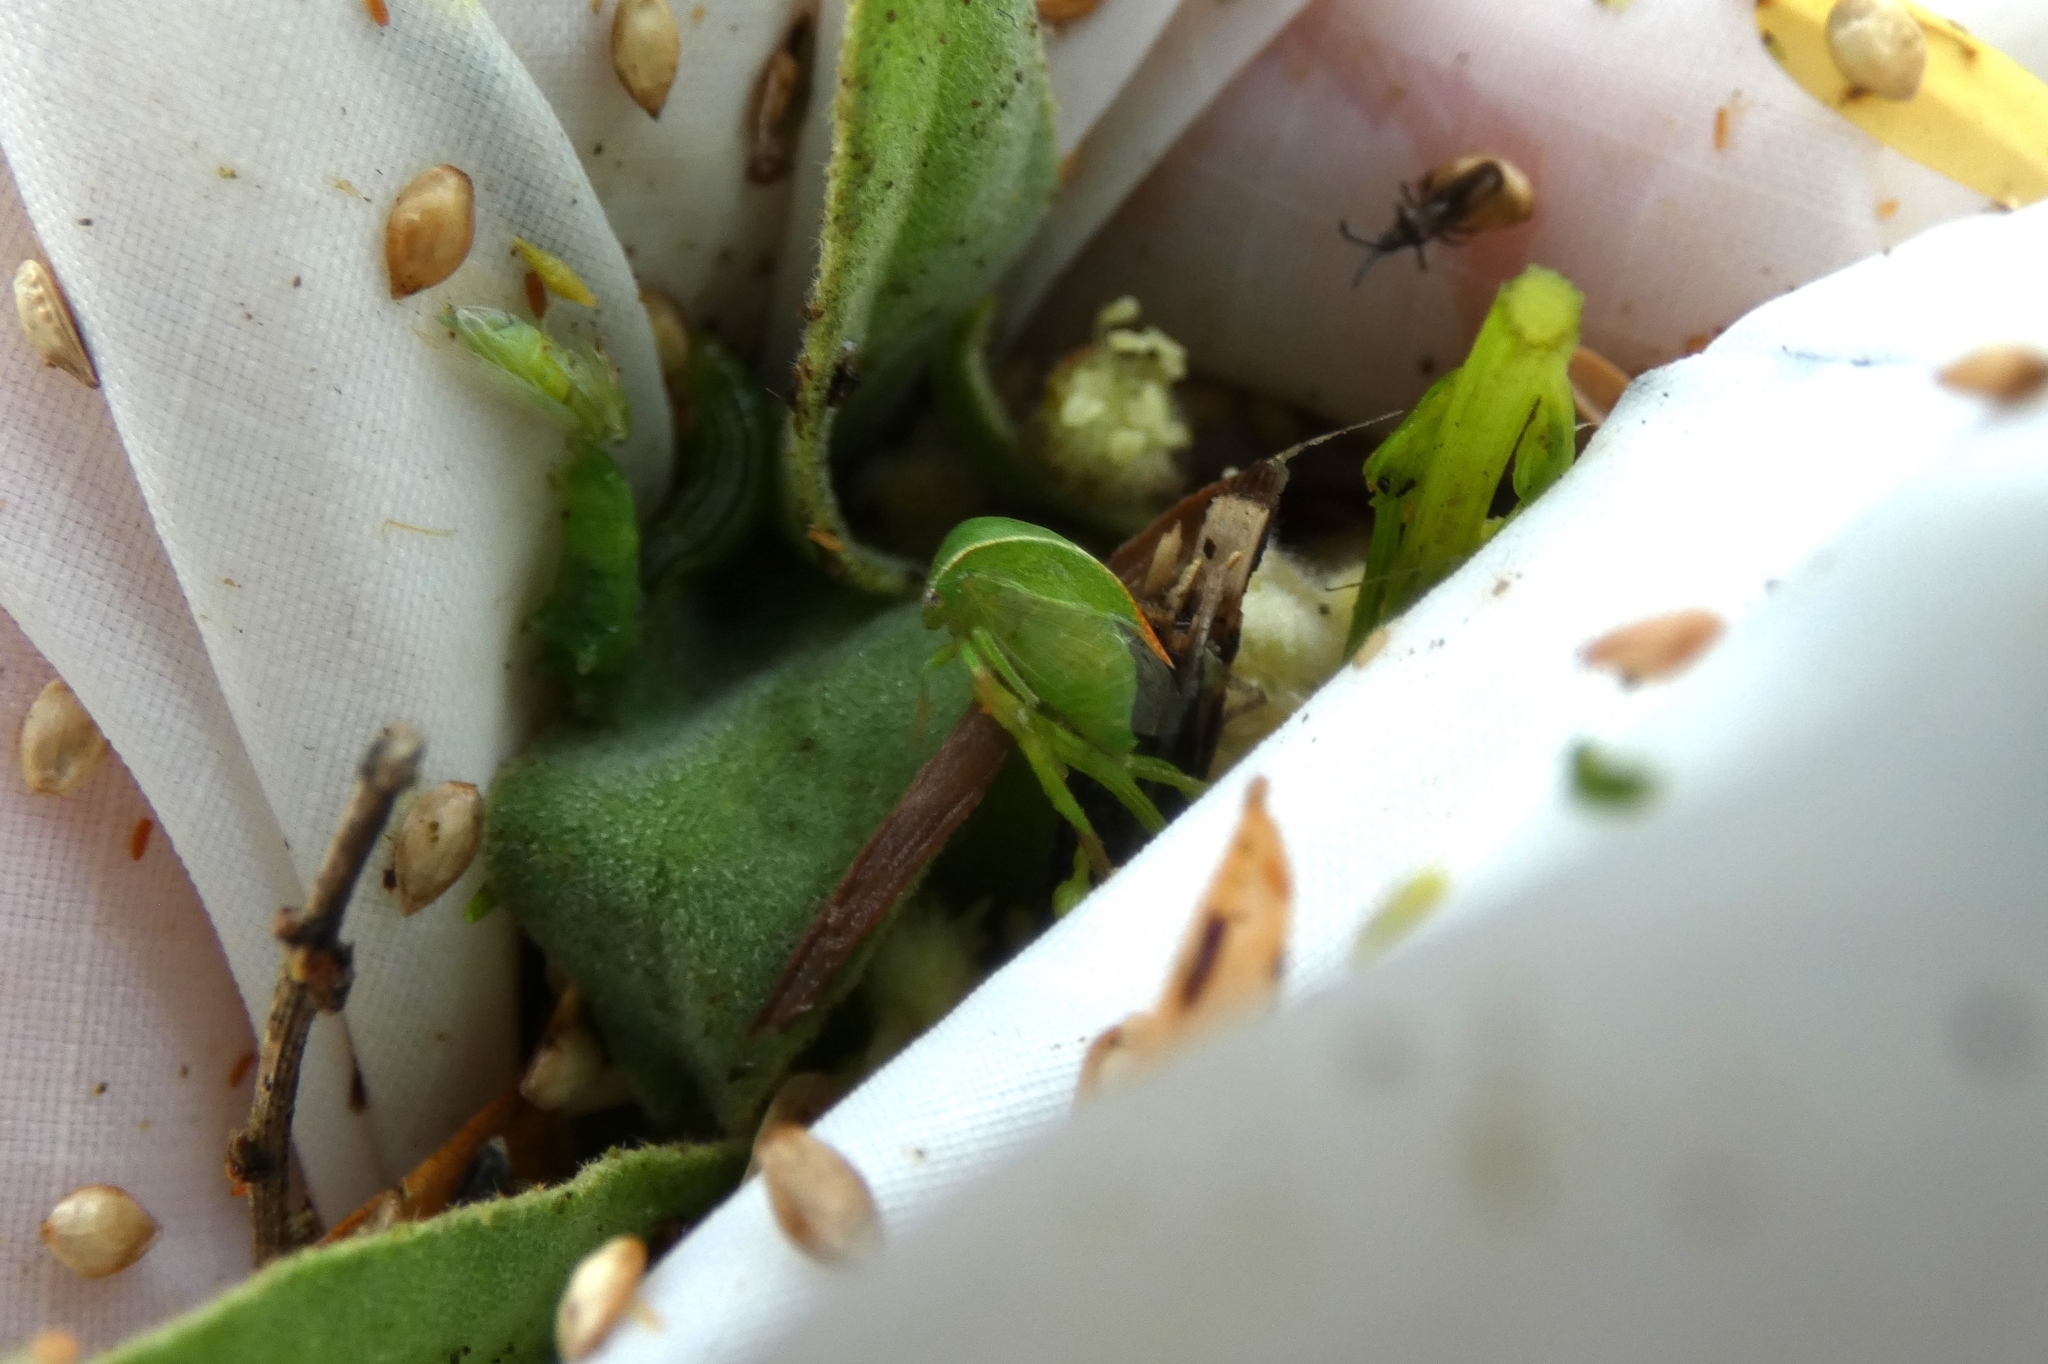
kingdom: Animalia
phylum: Arthropoda
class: Insecta
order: Hemiptera
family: Membracidae
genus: Spissistilus
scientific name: Spissistilus festina
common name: Membracid bug
